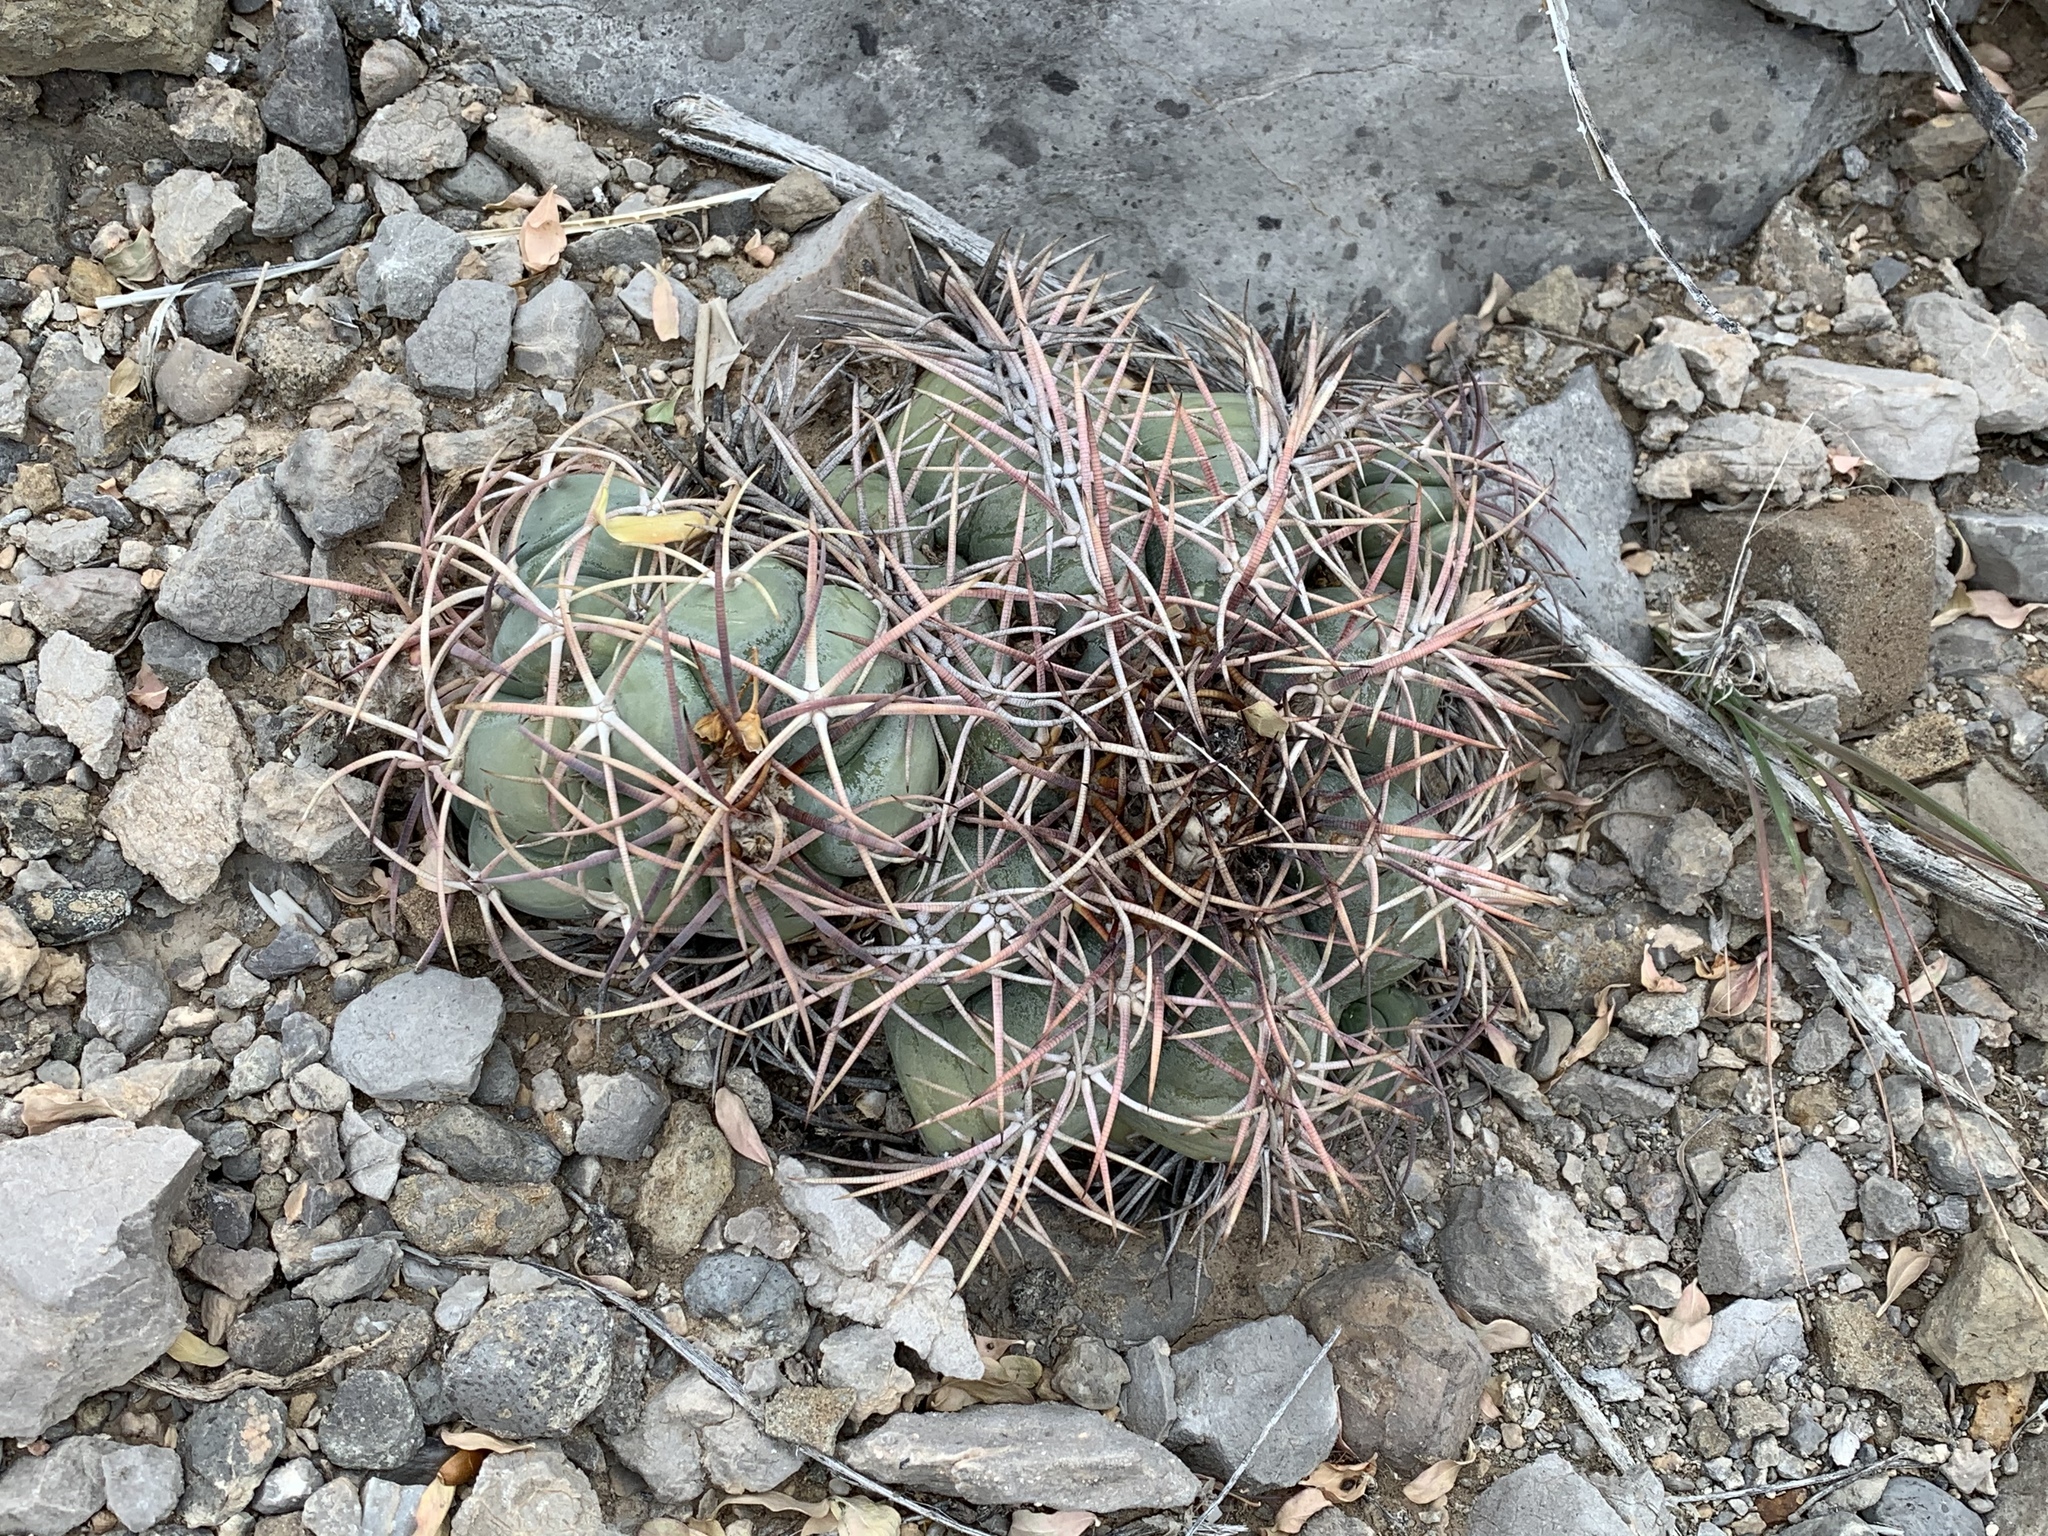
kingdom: Plantae
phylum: Tracheophyta
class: Magnoliopsida
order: Caryophyllales
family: Cactaceae
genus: Echinocactus
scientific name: Echinocactus horizonthalonius
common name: Devilshead
